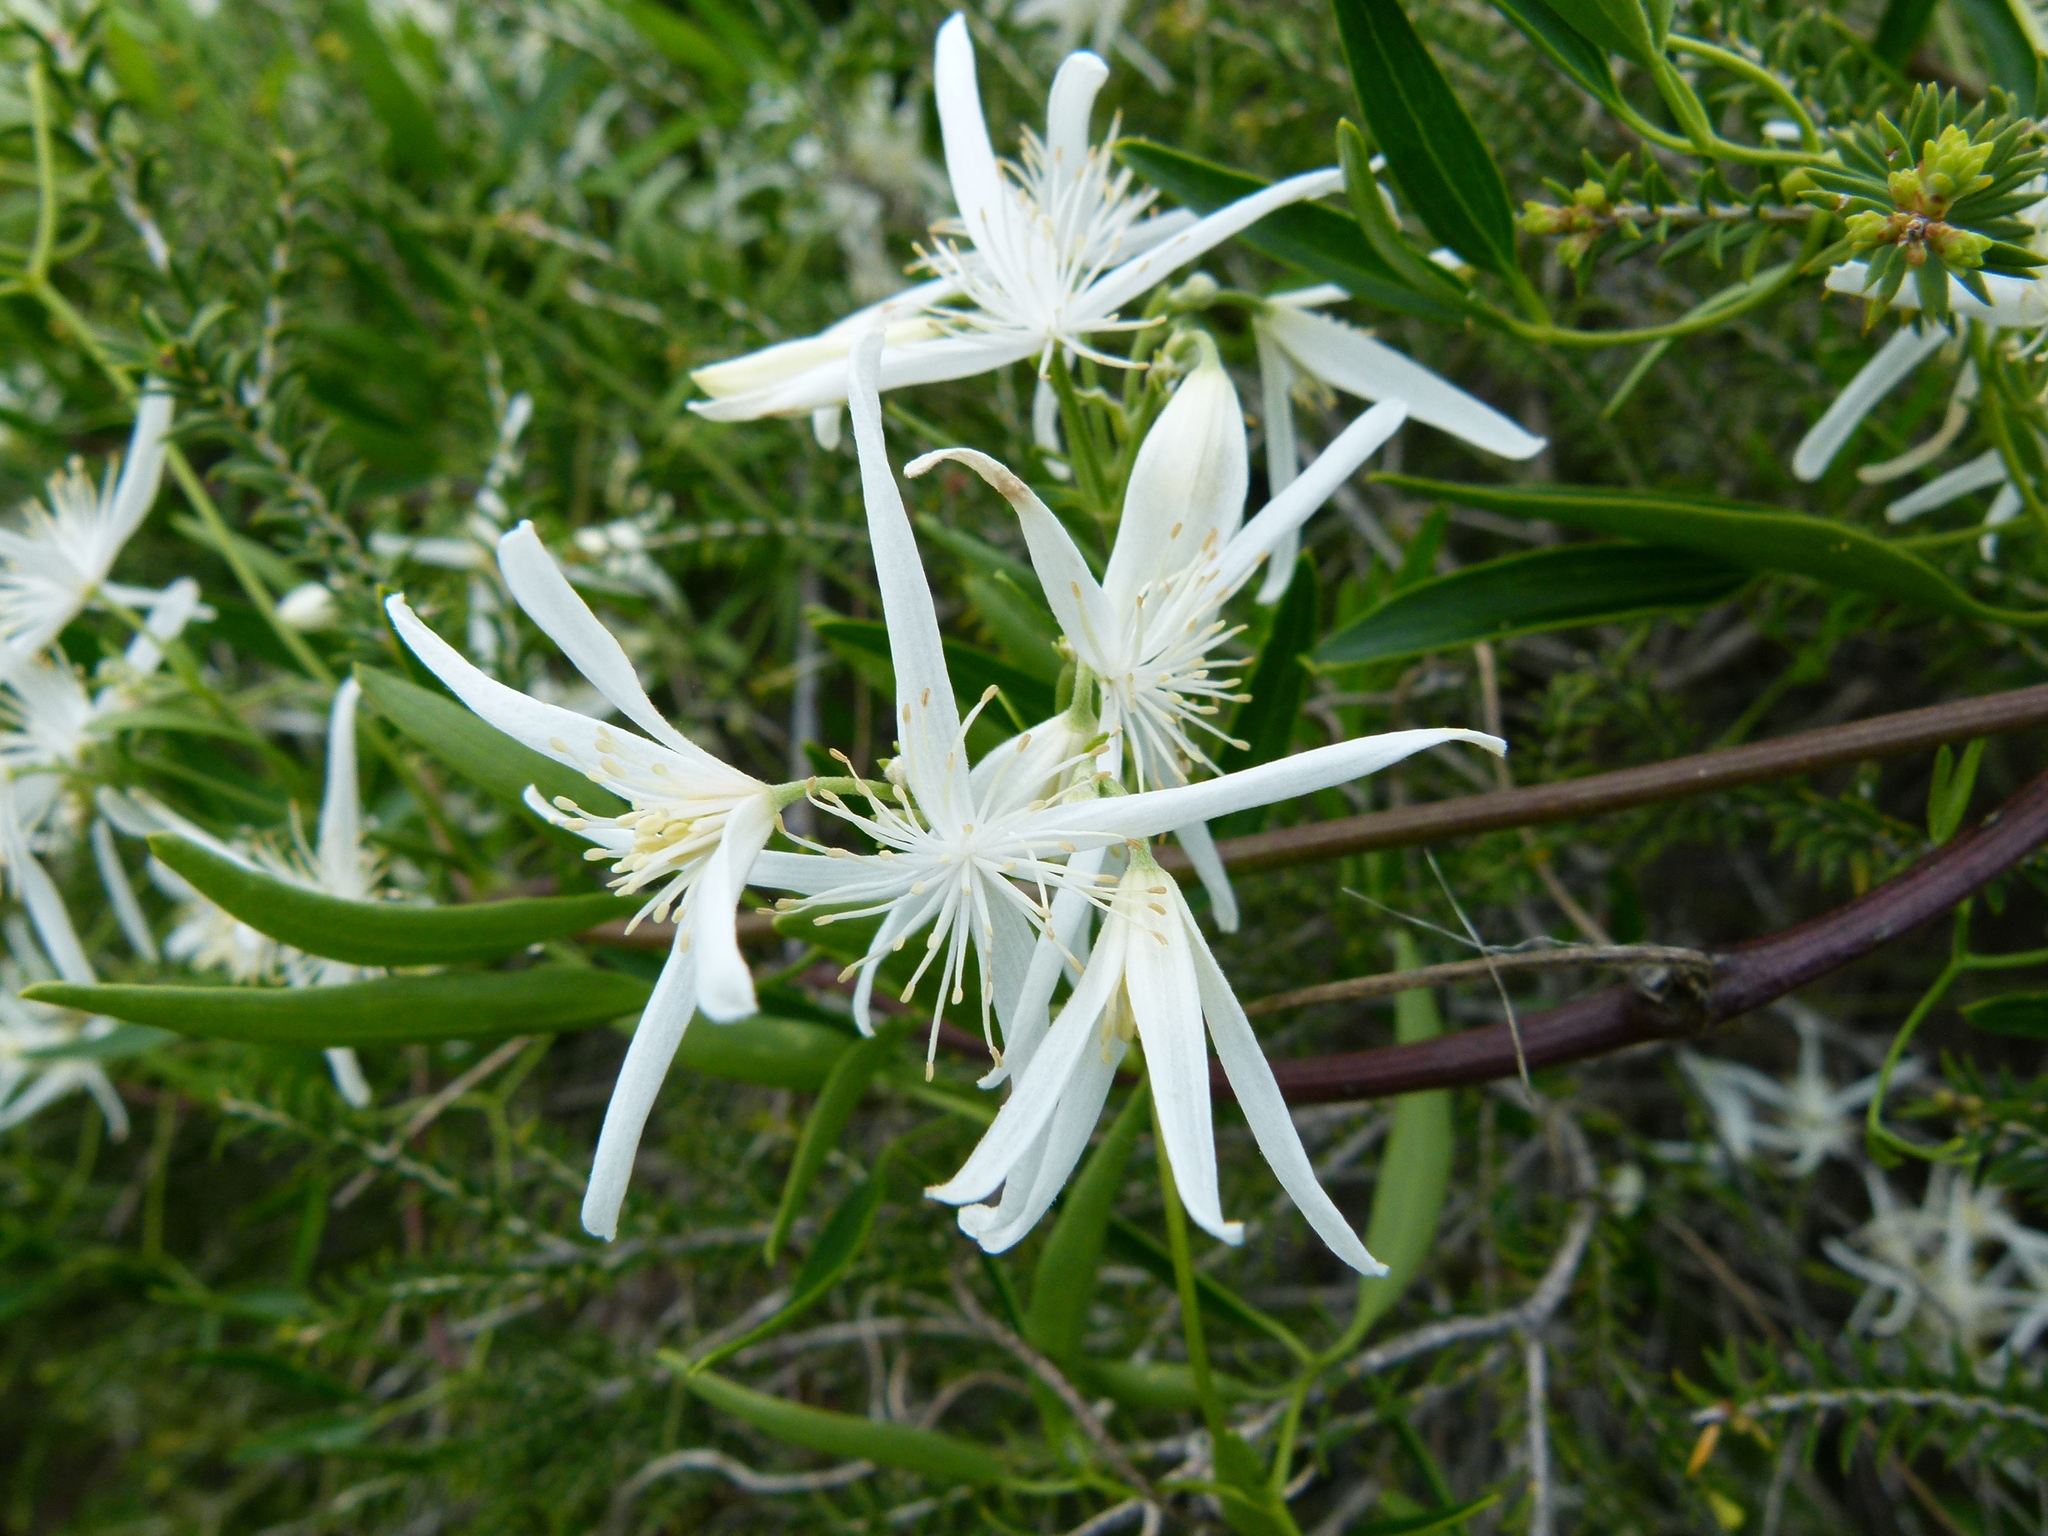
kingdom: Plantae
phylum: Tracheophyta
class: Magnoliopsida
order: Ranunculales
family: Ranunculaceae
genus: Clematis
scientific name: Clematis linearifolia
